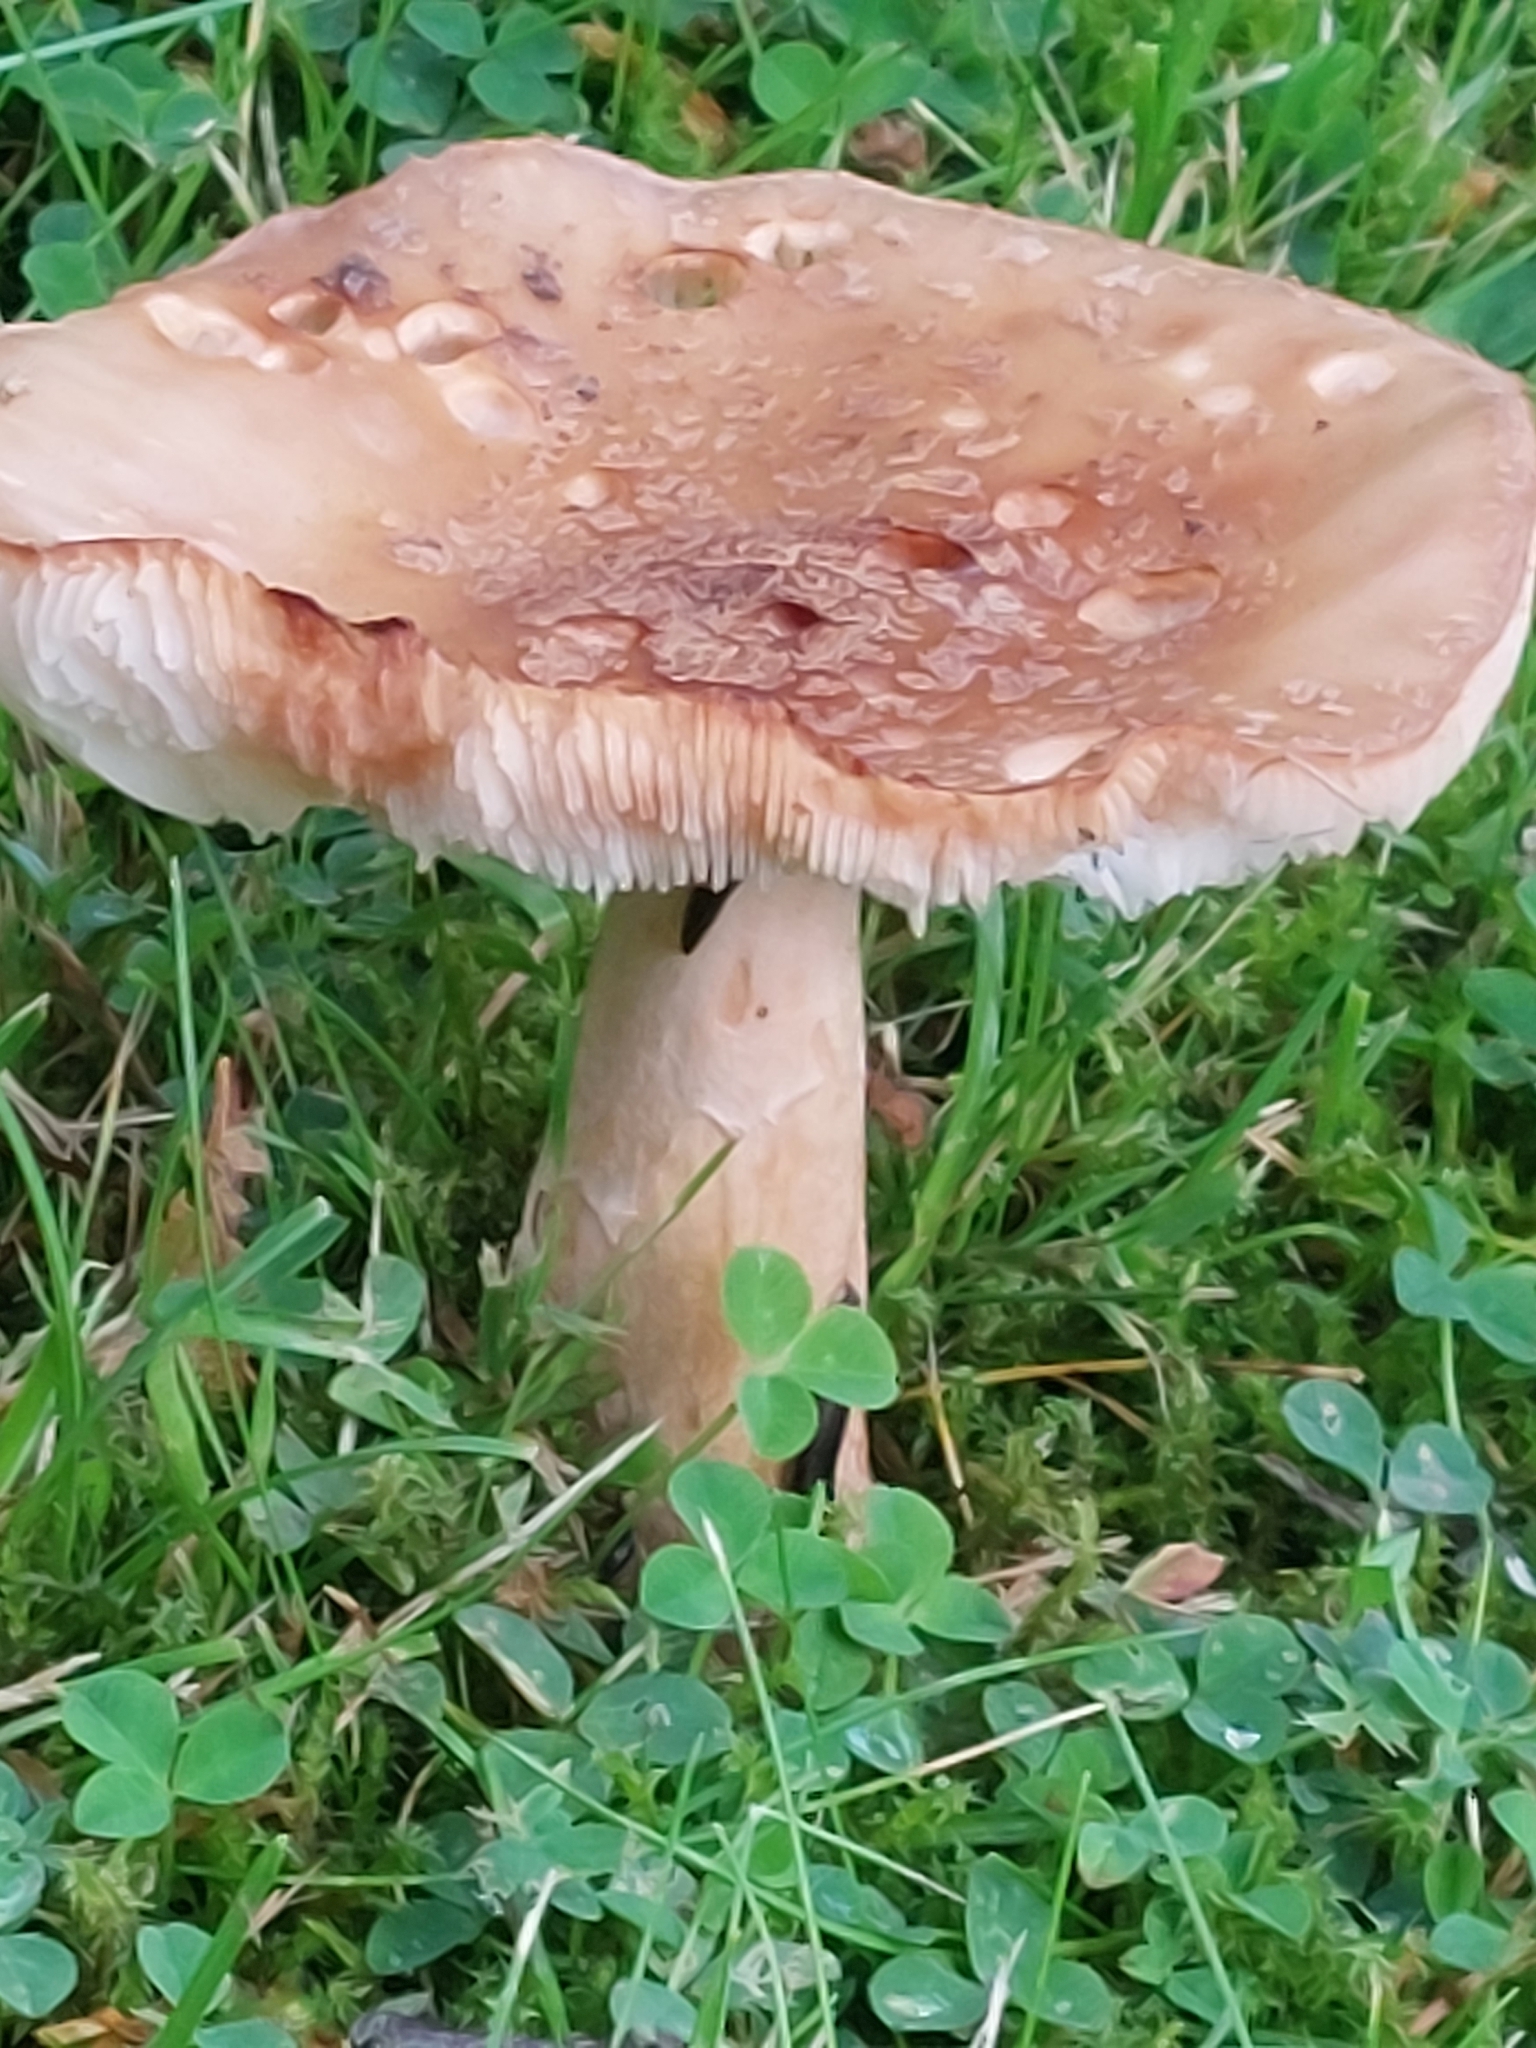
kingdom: Fungi
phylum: Basidiomycota
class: Agaricomycetes
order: Agaricales
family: Amanitaceae
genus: Amanita
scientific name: Amanita rubescens
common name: Blusher
